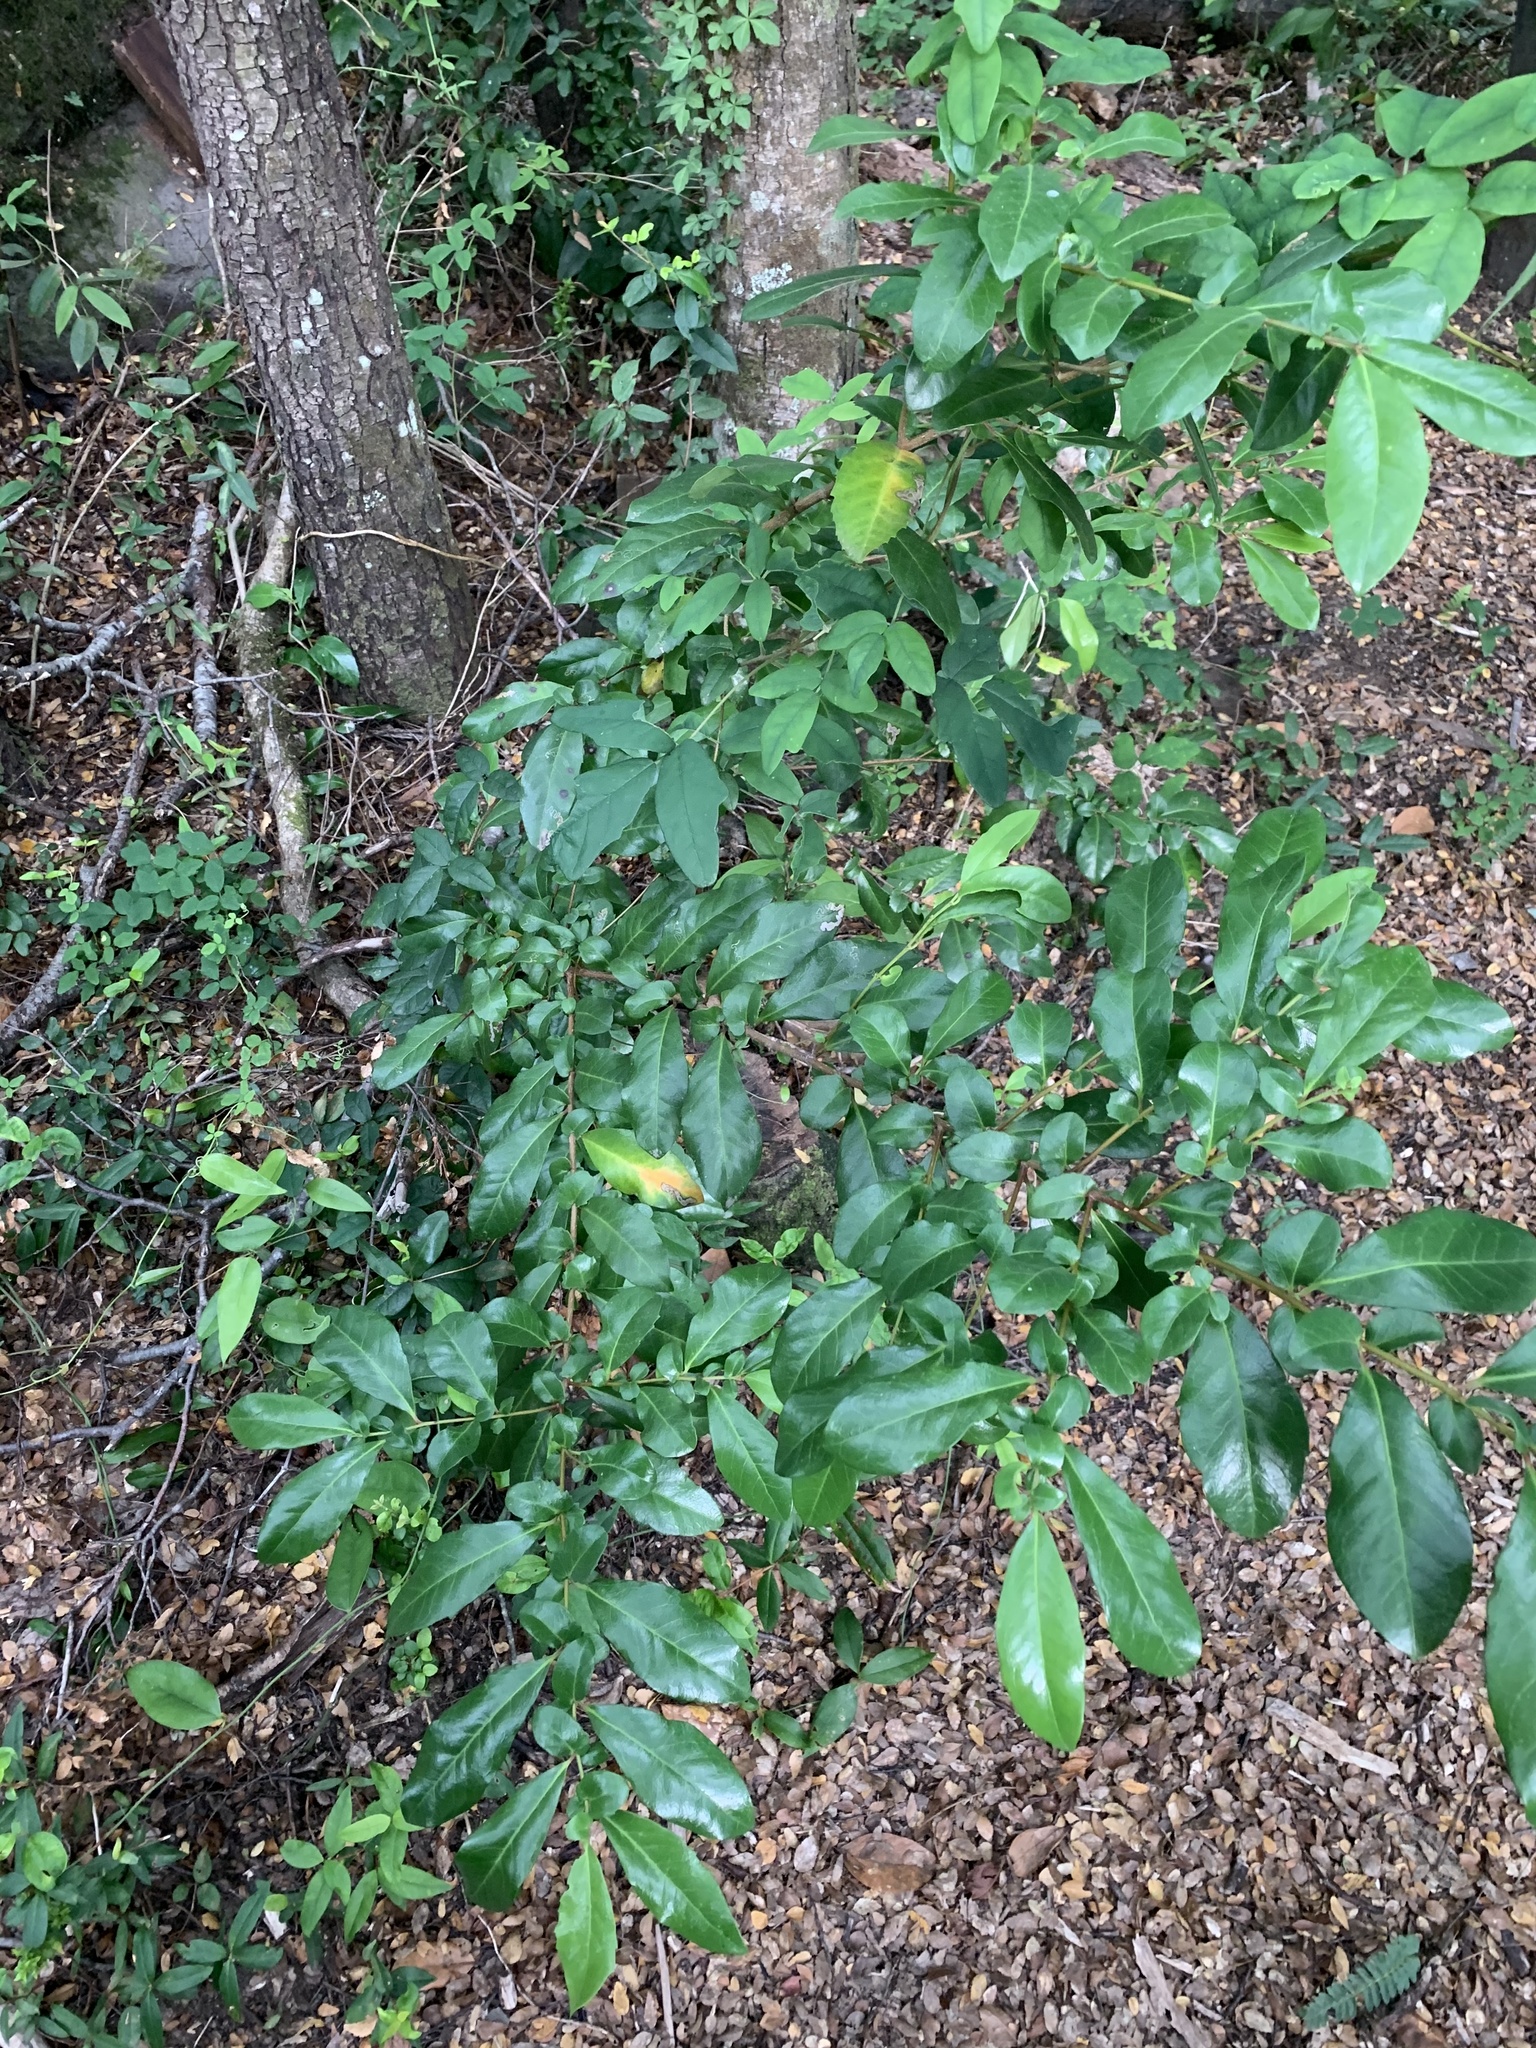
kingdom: Plantae
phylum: Tracheophyta
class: Magnoliopsida
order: Malpighiales
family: Salicaceae
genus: Azara
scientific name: Azara integrifolia
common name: Goldspire
